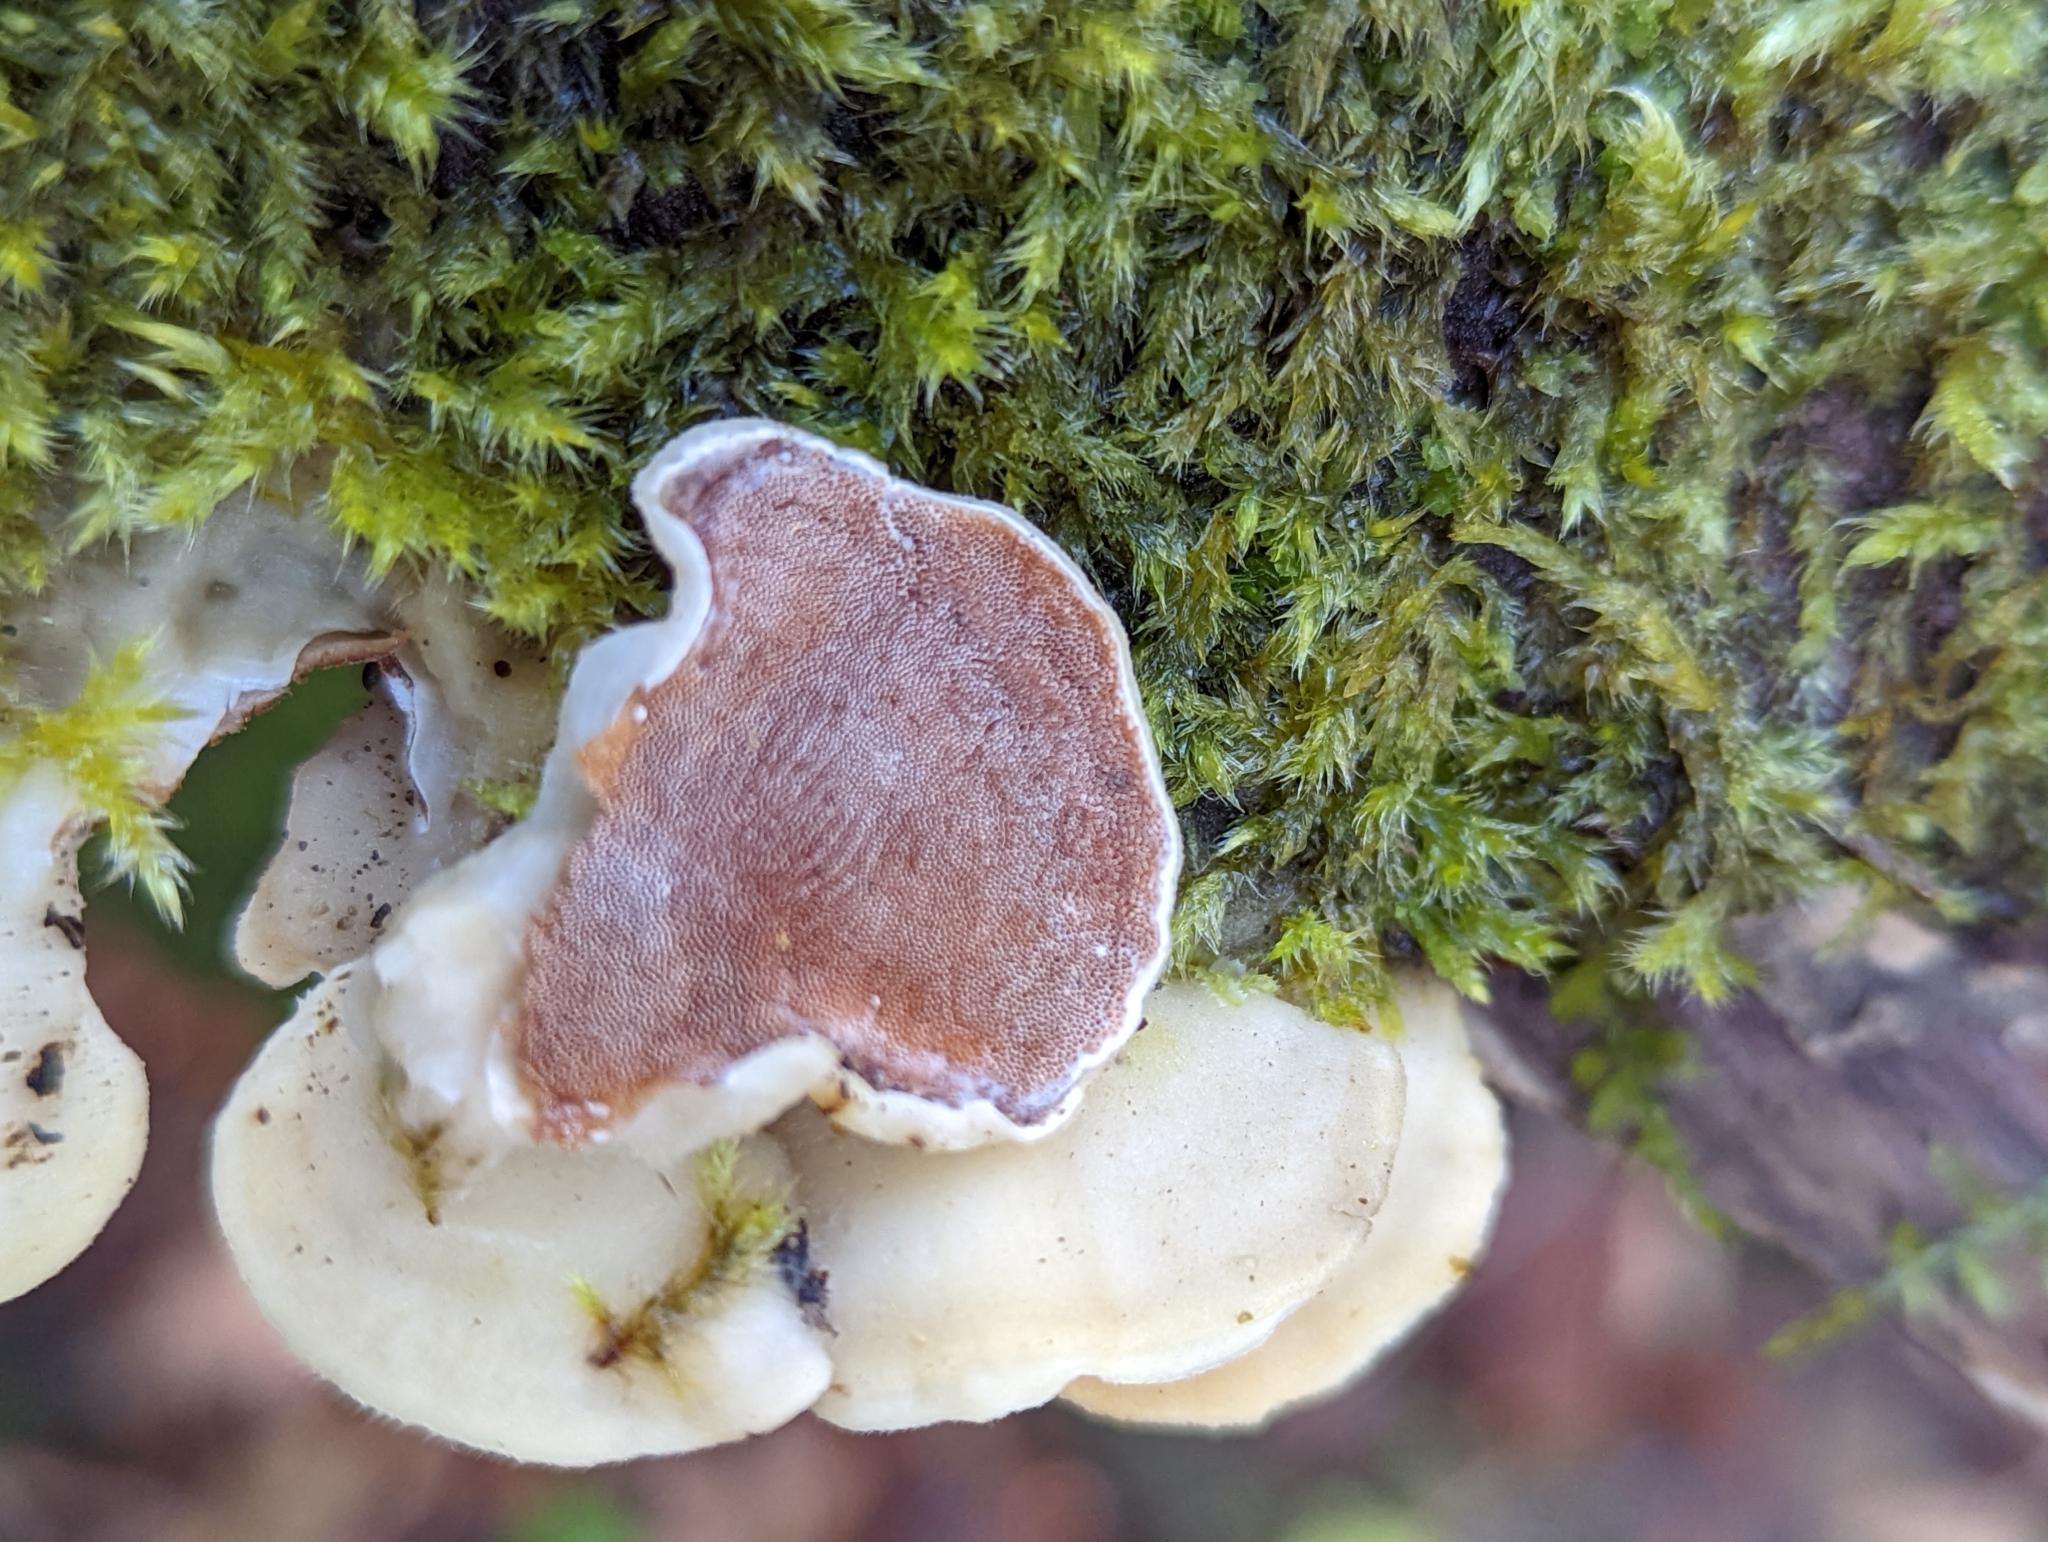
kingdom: Fungi
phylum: Basidiomycota
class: Agaricomycetes
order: Polyporales
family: Irpicaceae
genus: Meruliopsis
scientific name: Meruliopsis taxicola
